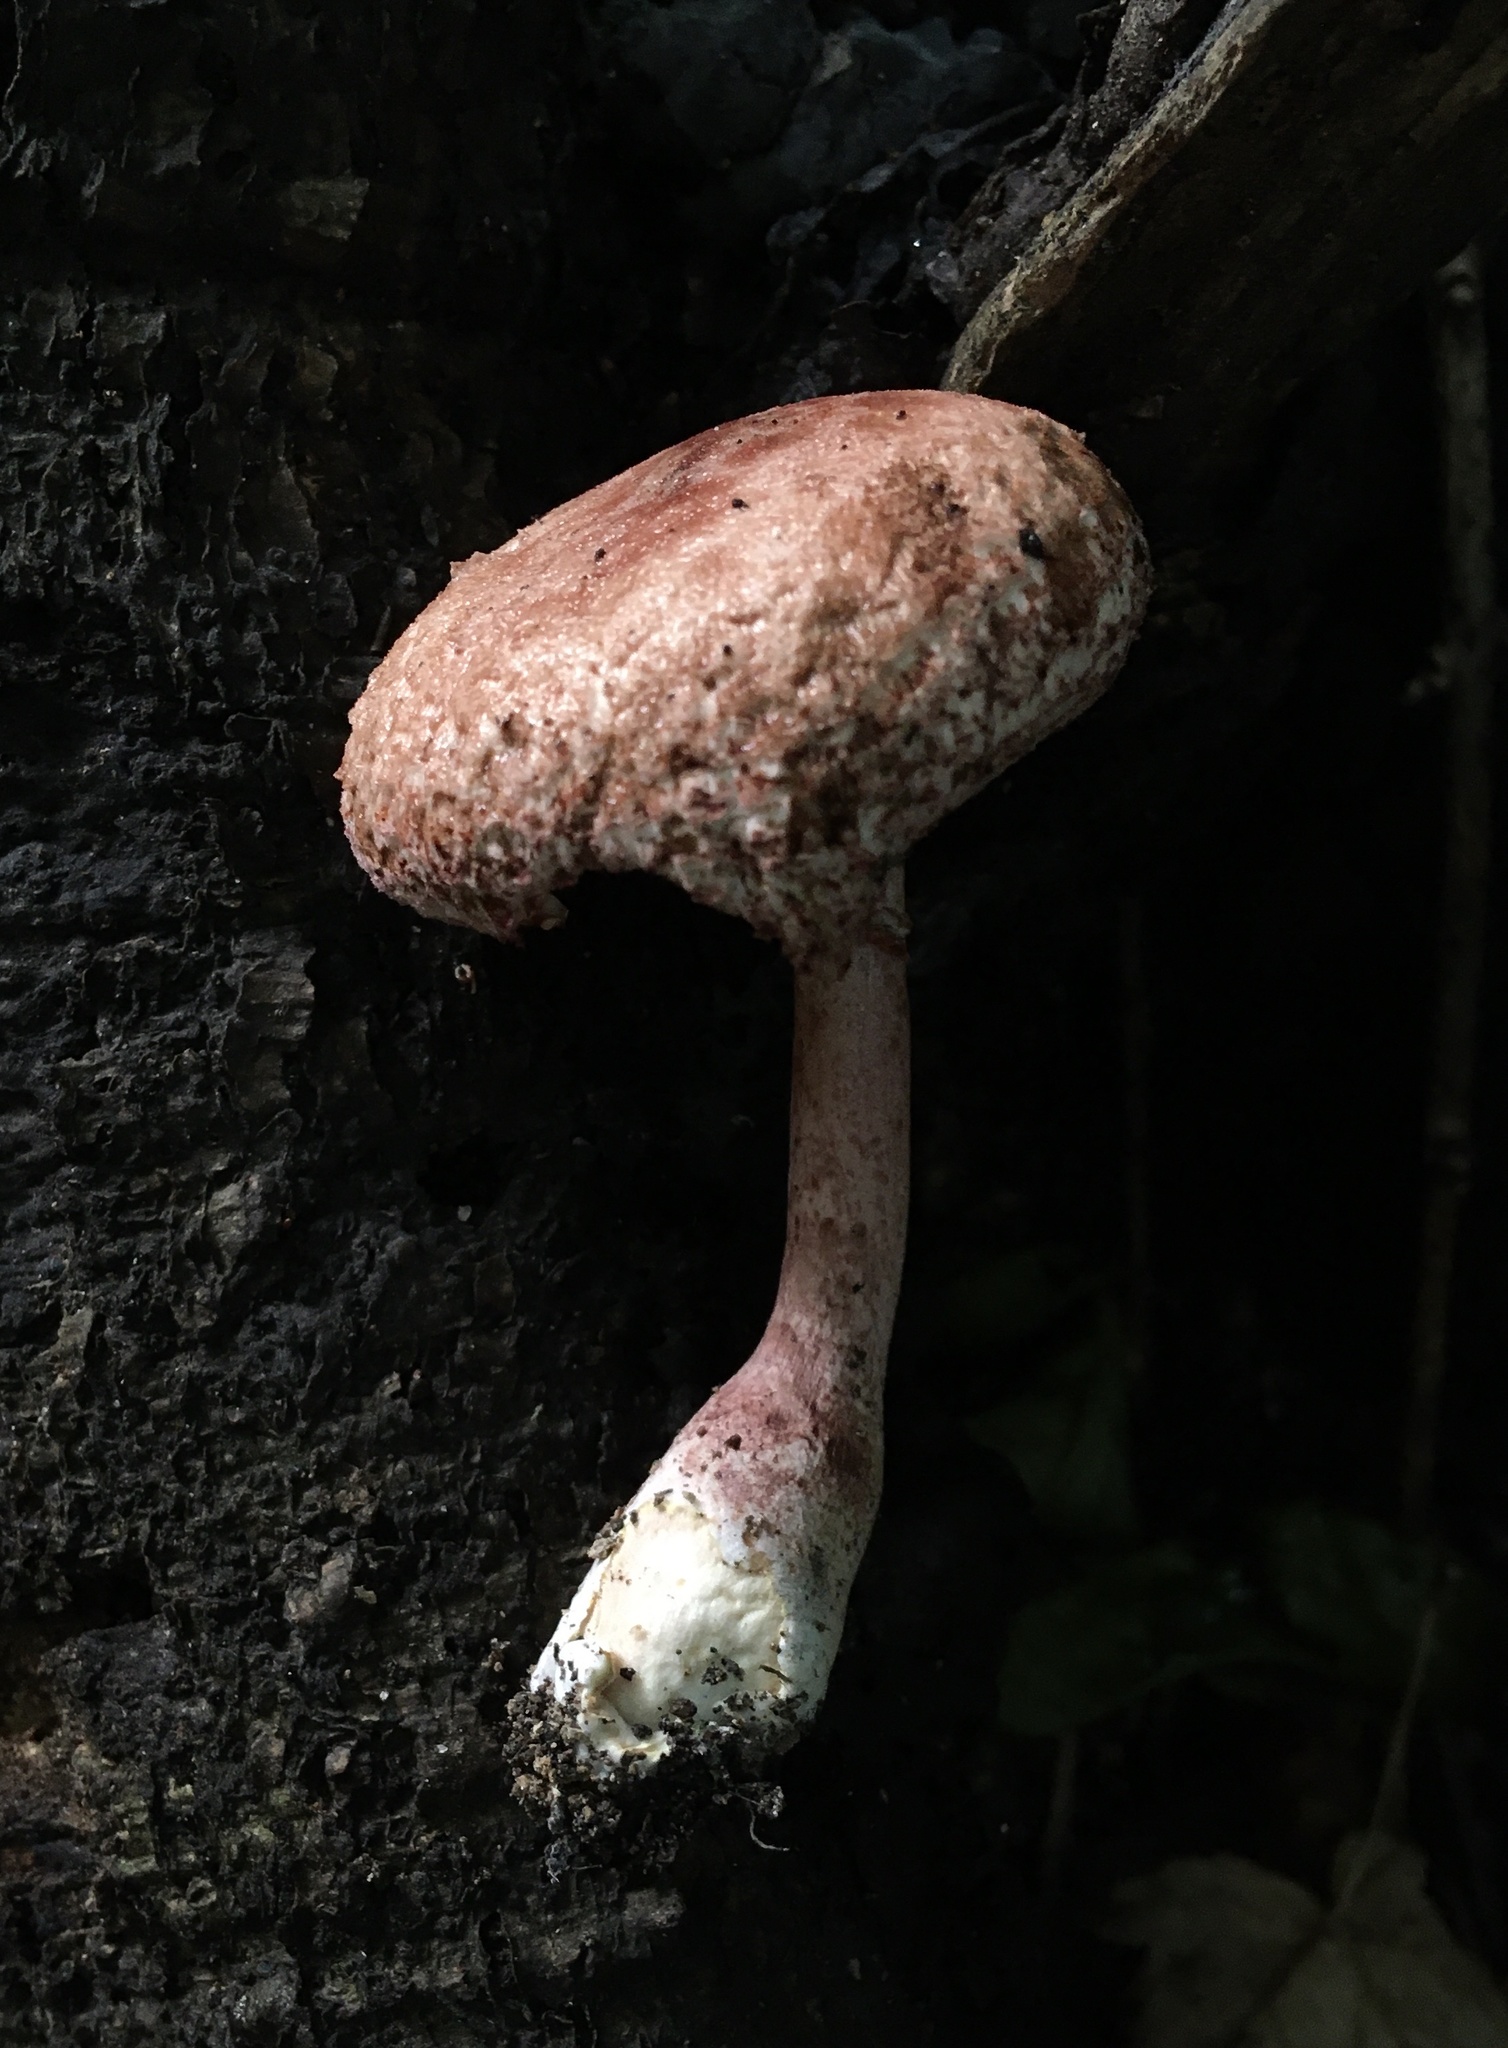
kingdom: Fungi
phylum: Basidiomycota
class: Agaricomycetes
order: Agaricales
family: Agaricaceae
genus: Leucoagaricus
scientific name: Leucoagaricus americanus
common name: Reddening lepiota
